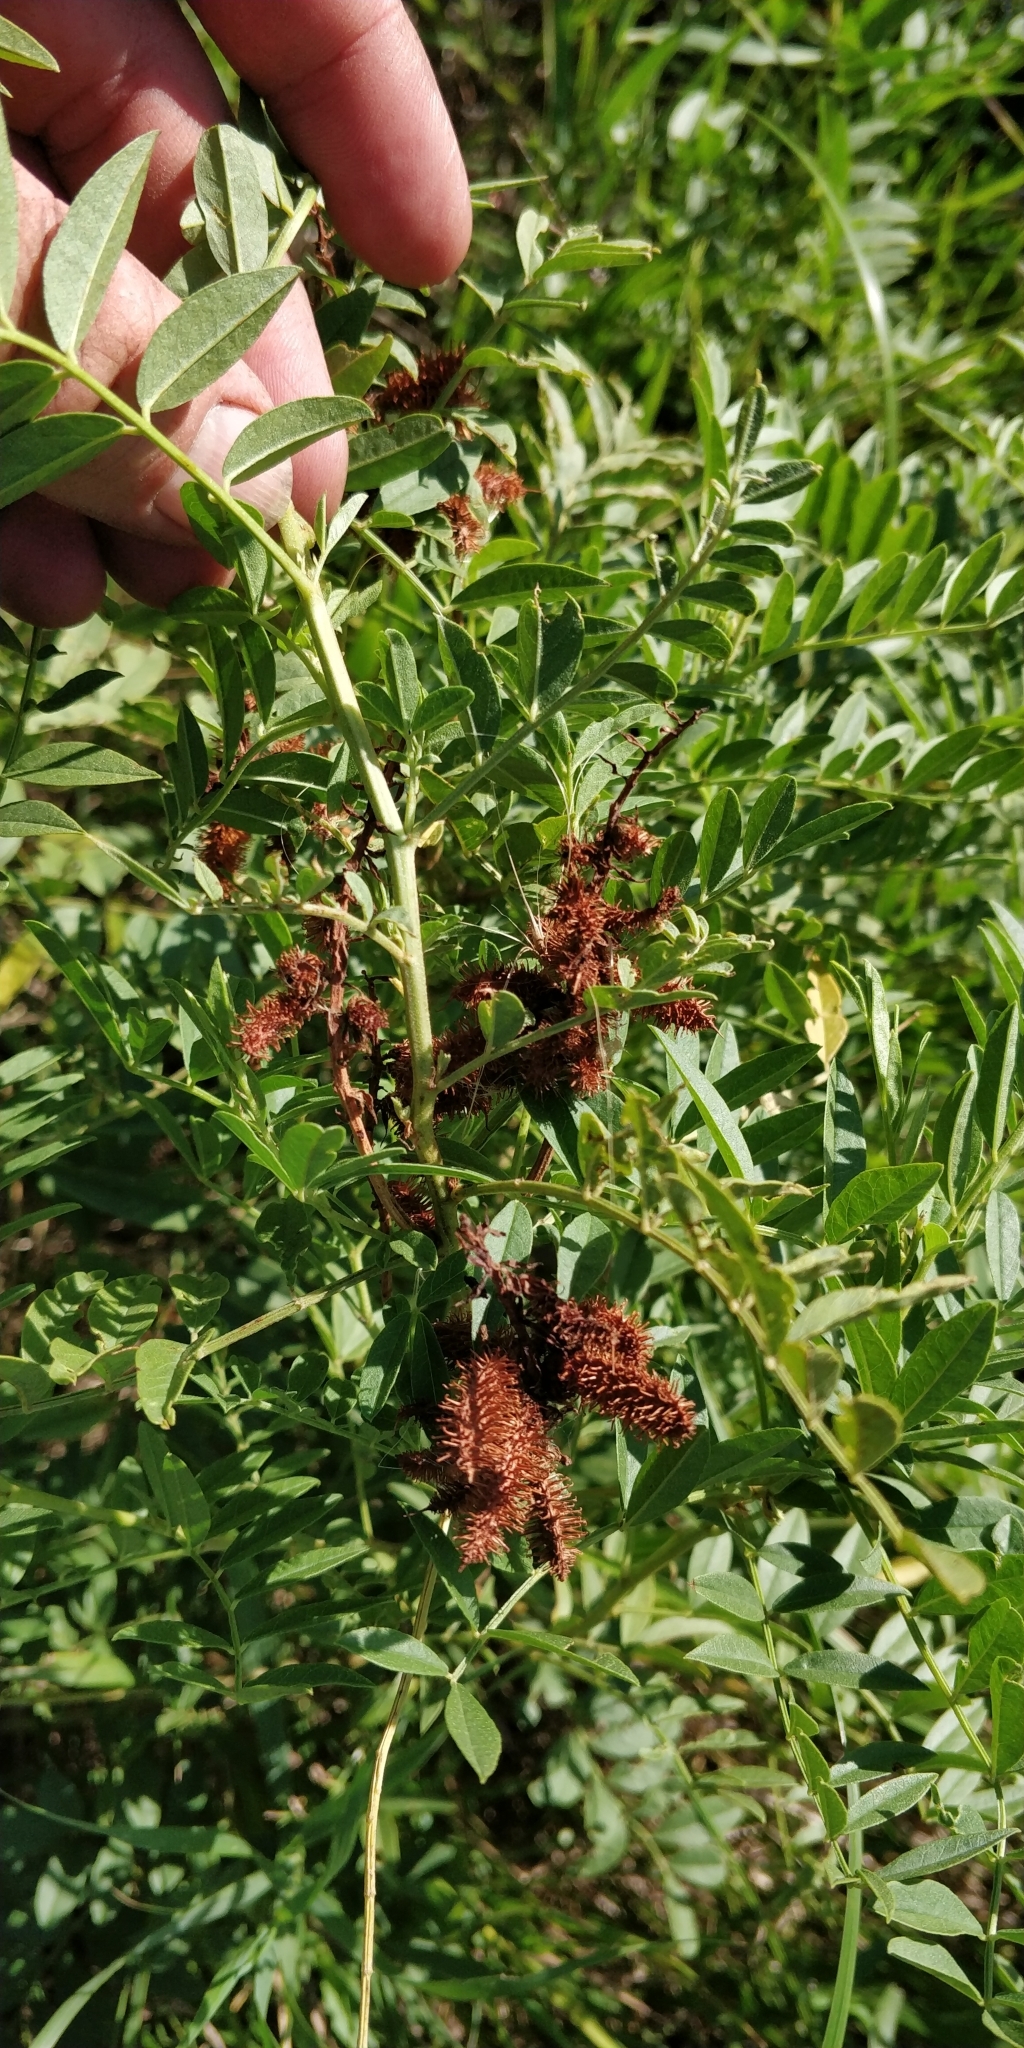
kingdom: Plantae
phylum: Tracheophyta
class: Magnoliopsida
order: Fabales
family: Fabaceae
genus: Glycyrrhiza
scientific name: Glycyrrhiza lepidota
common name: American liquorice
